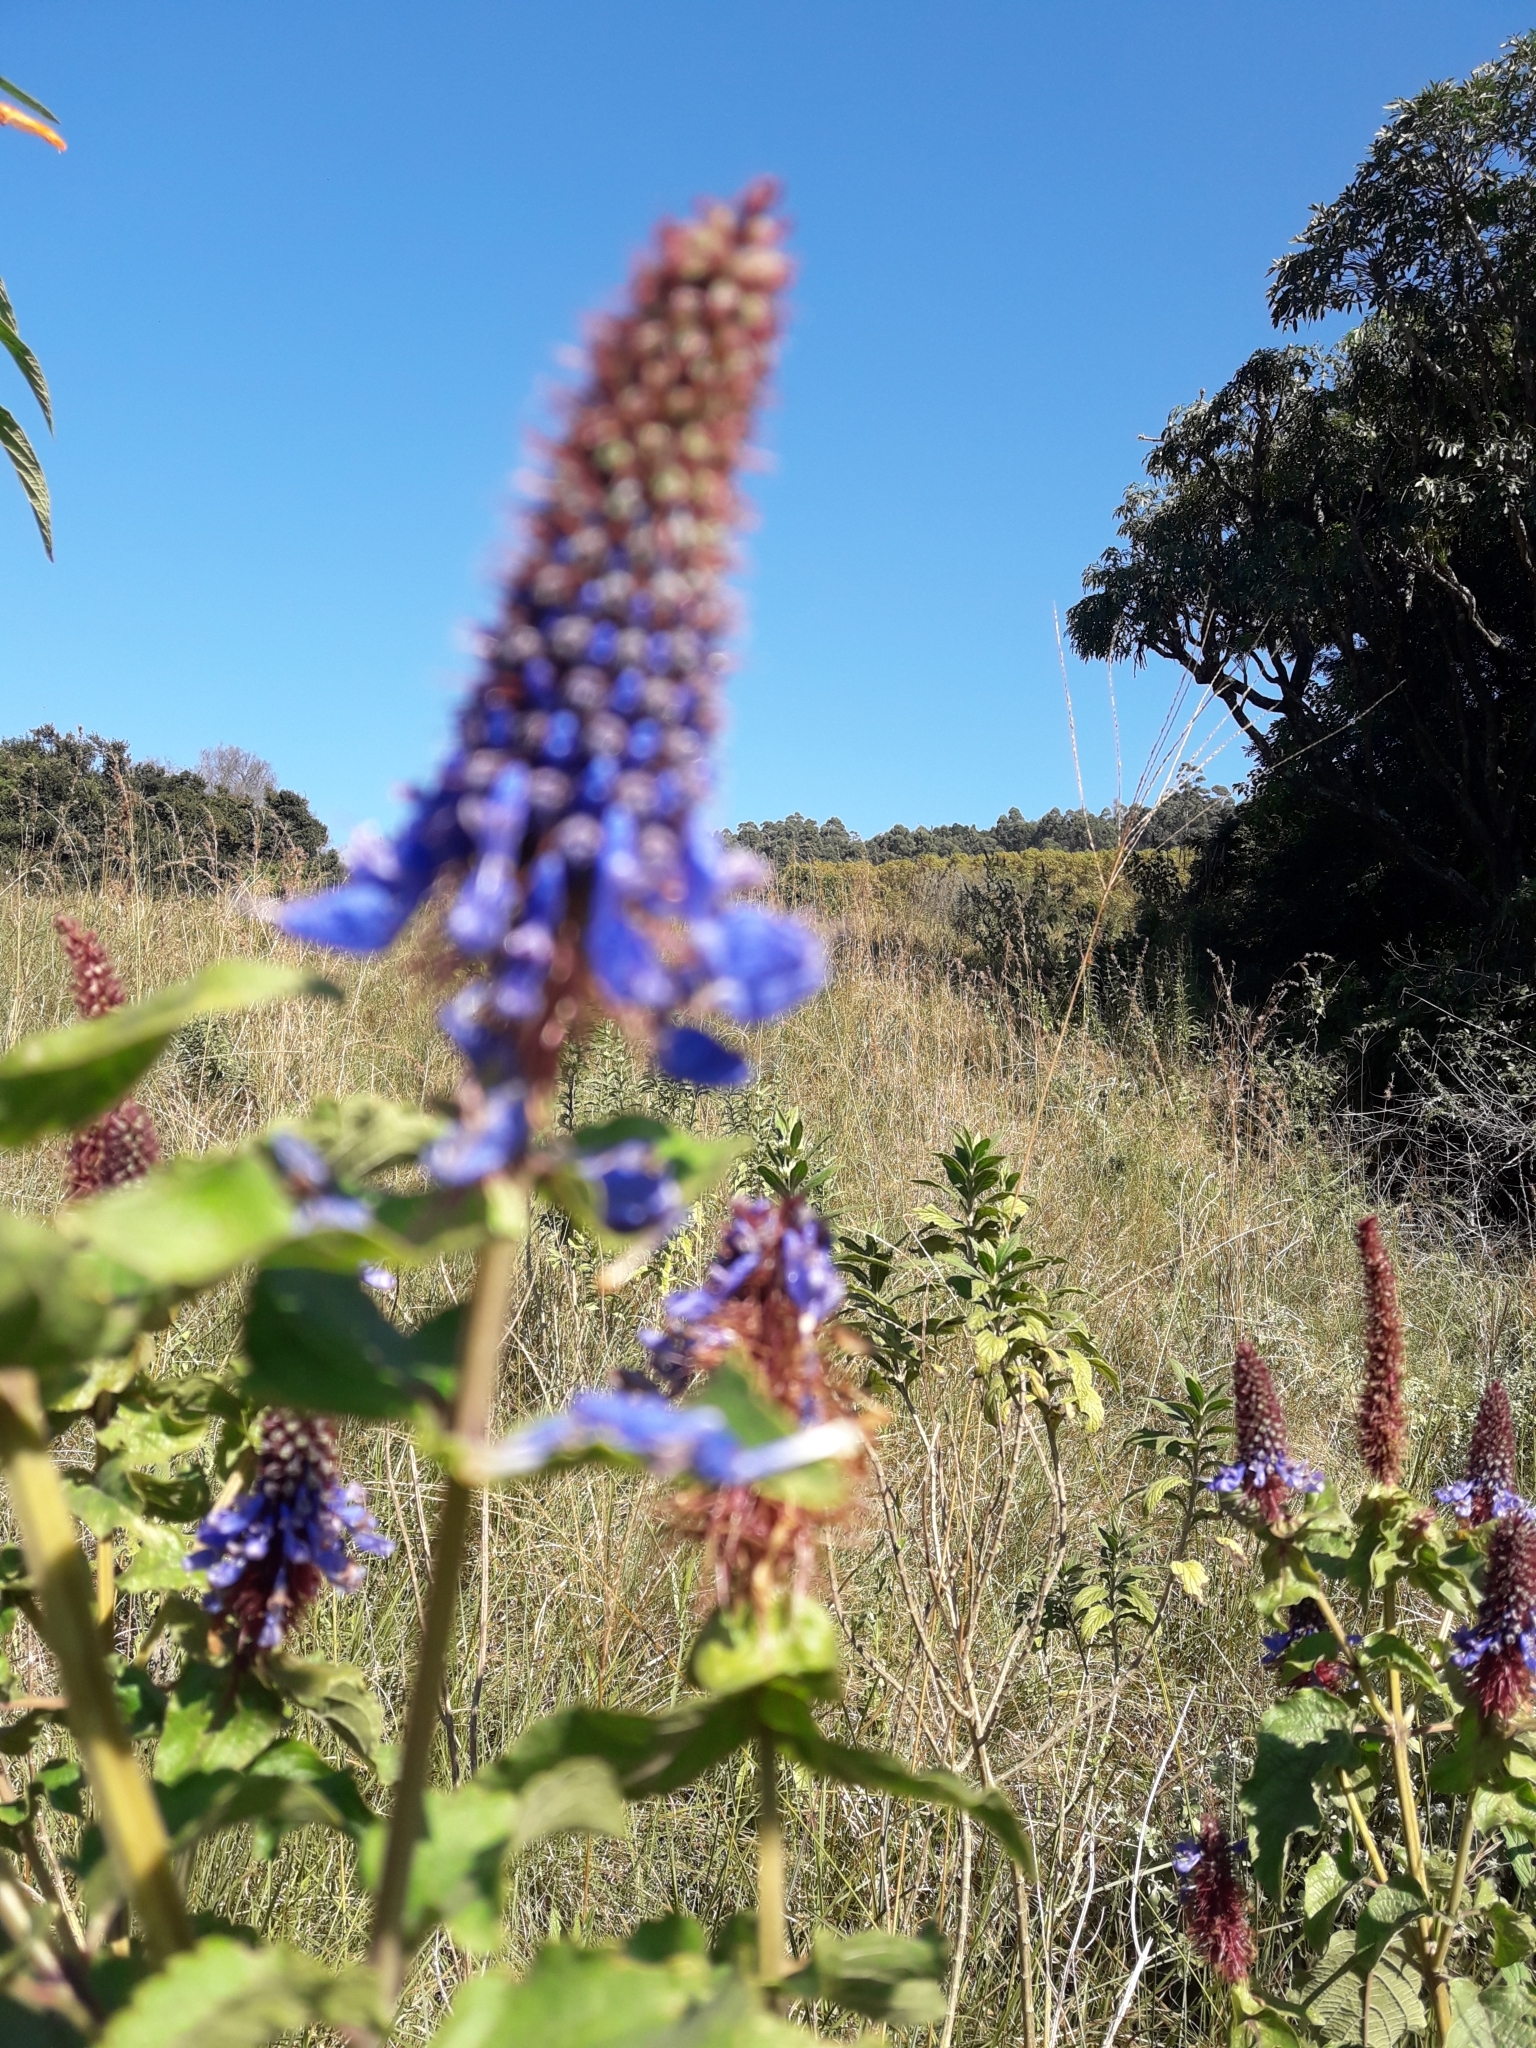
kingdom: Plantae
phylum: Tracheophyta
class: Magnoliopsida
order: Lamiales
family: Lamiaceae
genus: Coleus
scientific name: Coleus livingstonei
